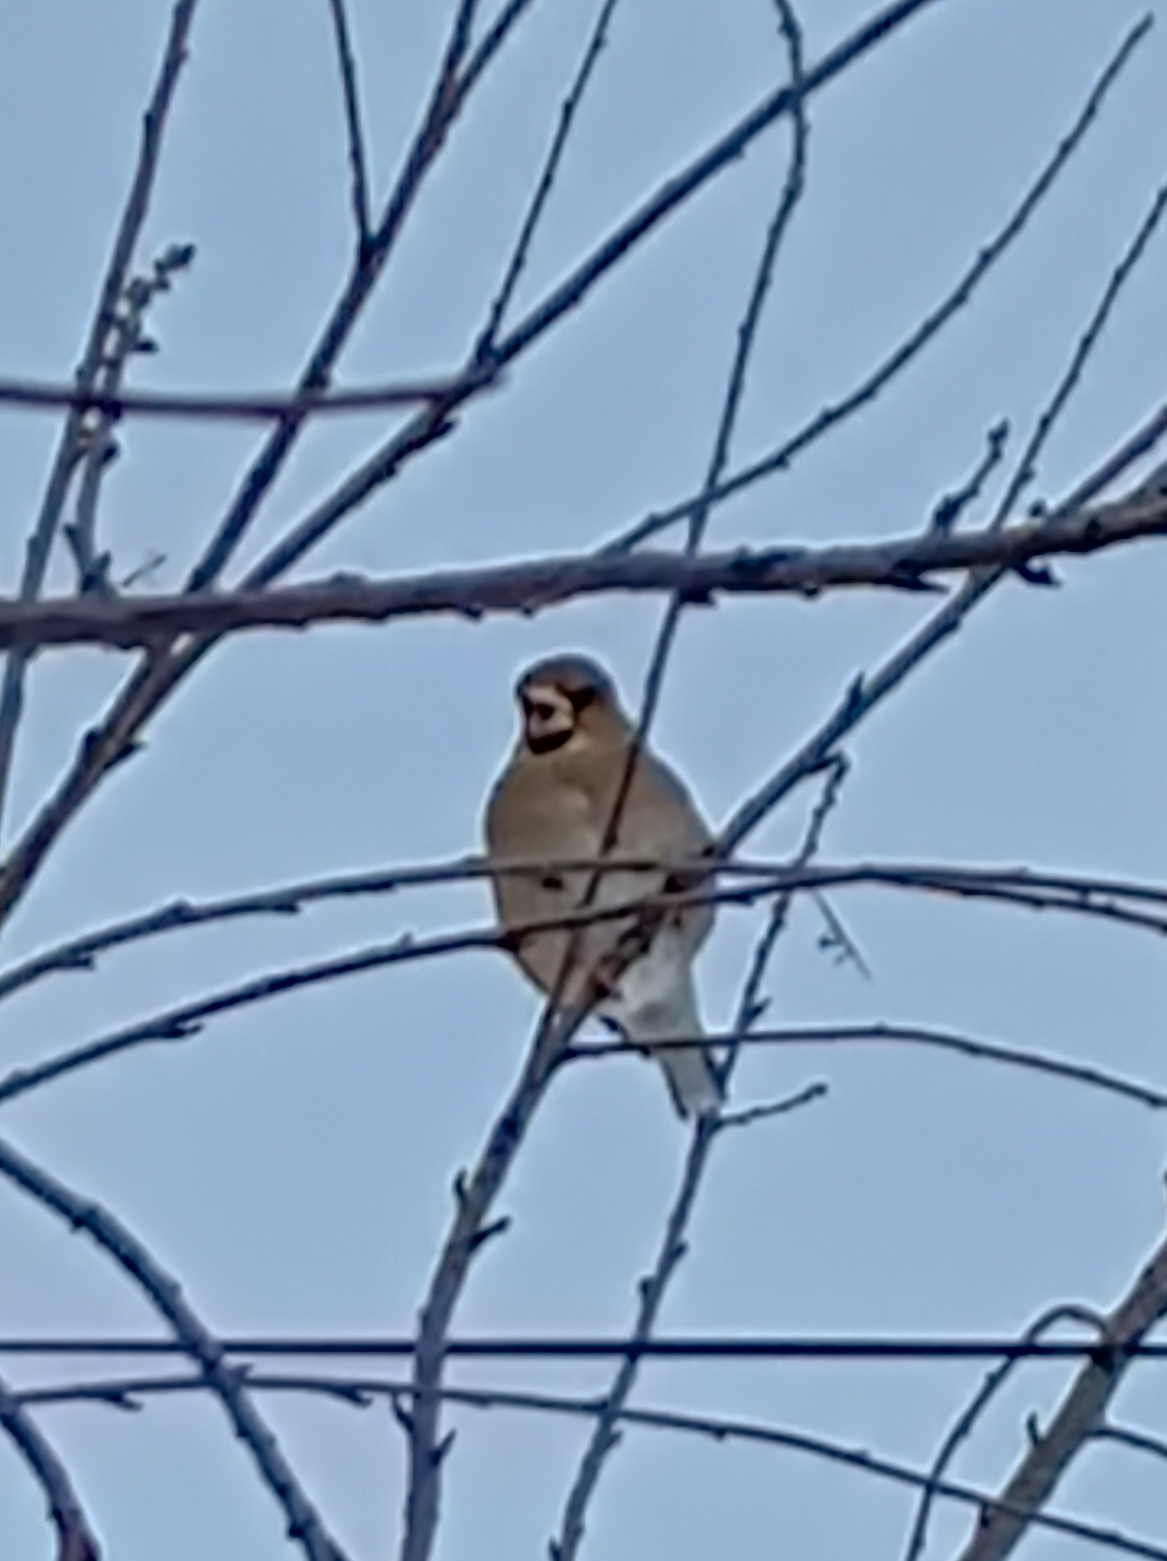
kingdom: Animalia
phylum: Chordata
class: Aves
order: Passeriformes
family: Fringillidae
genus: Coccothraustes
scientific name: Coccothraustes coccothraustes
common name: Hawfinch
